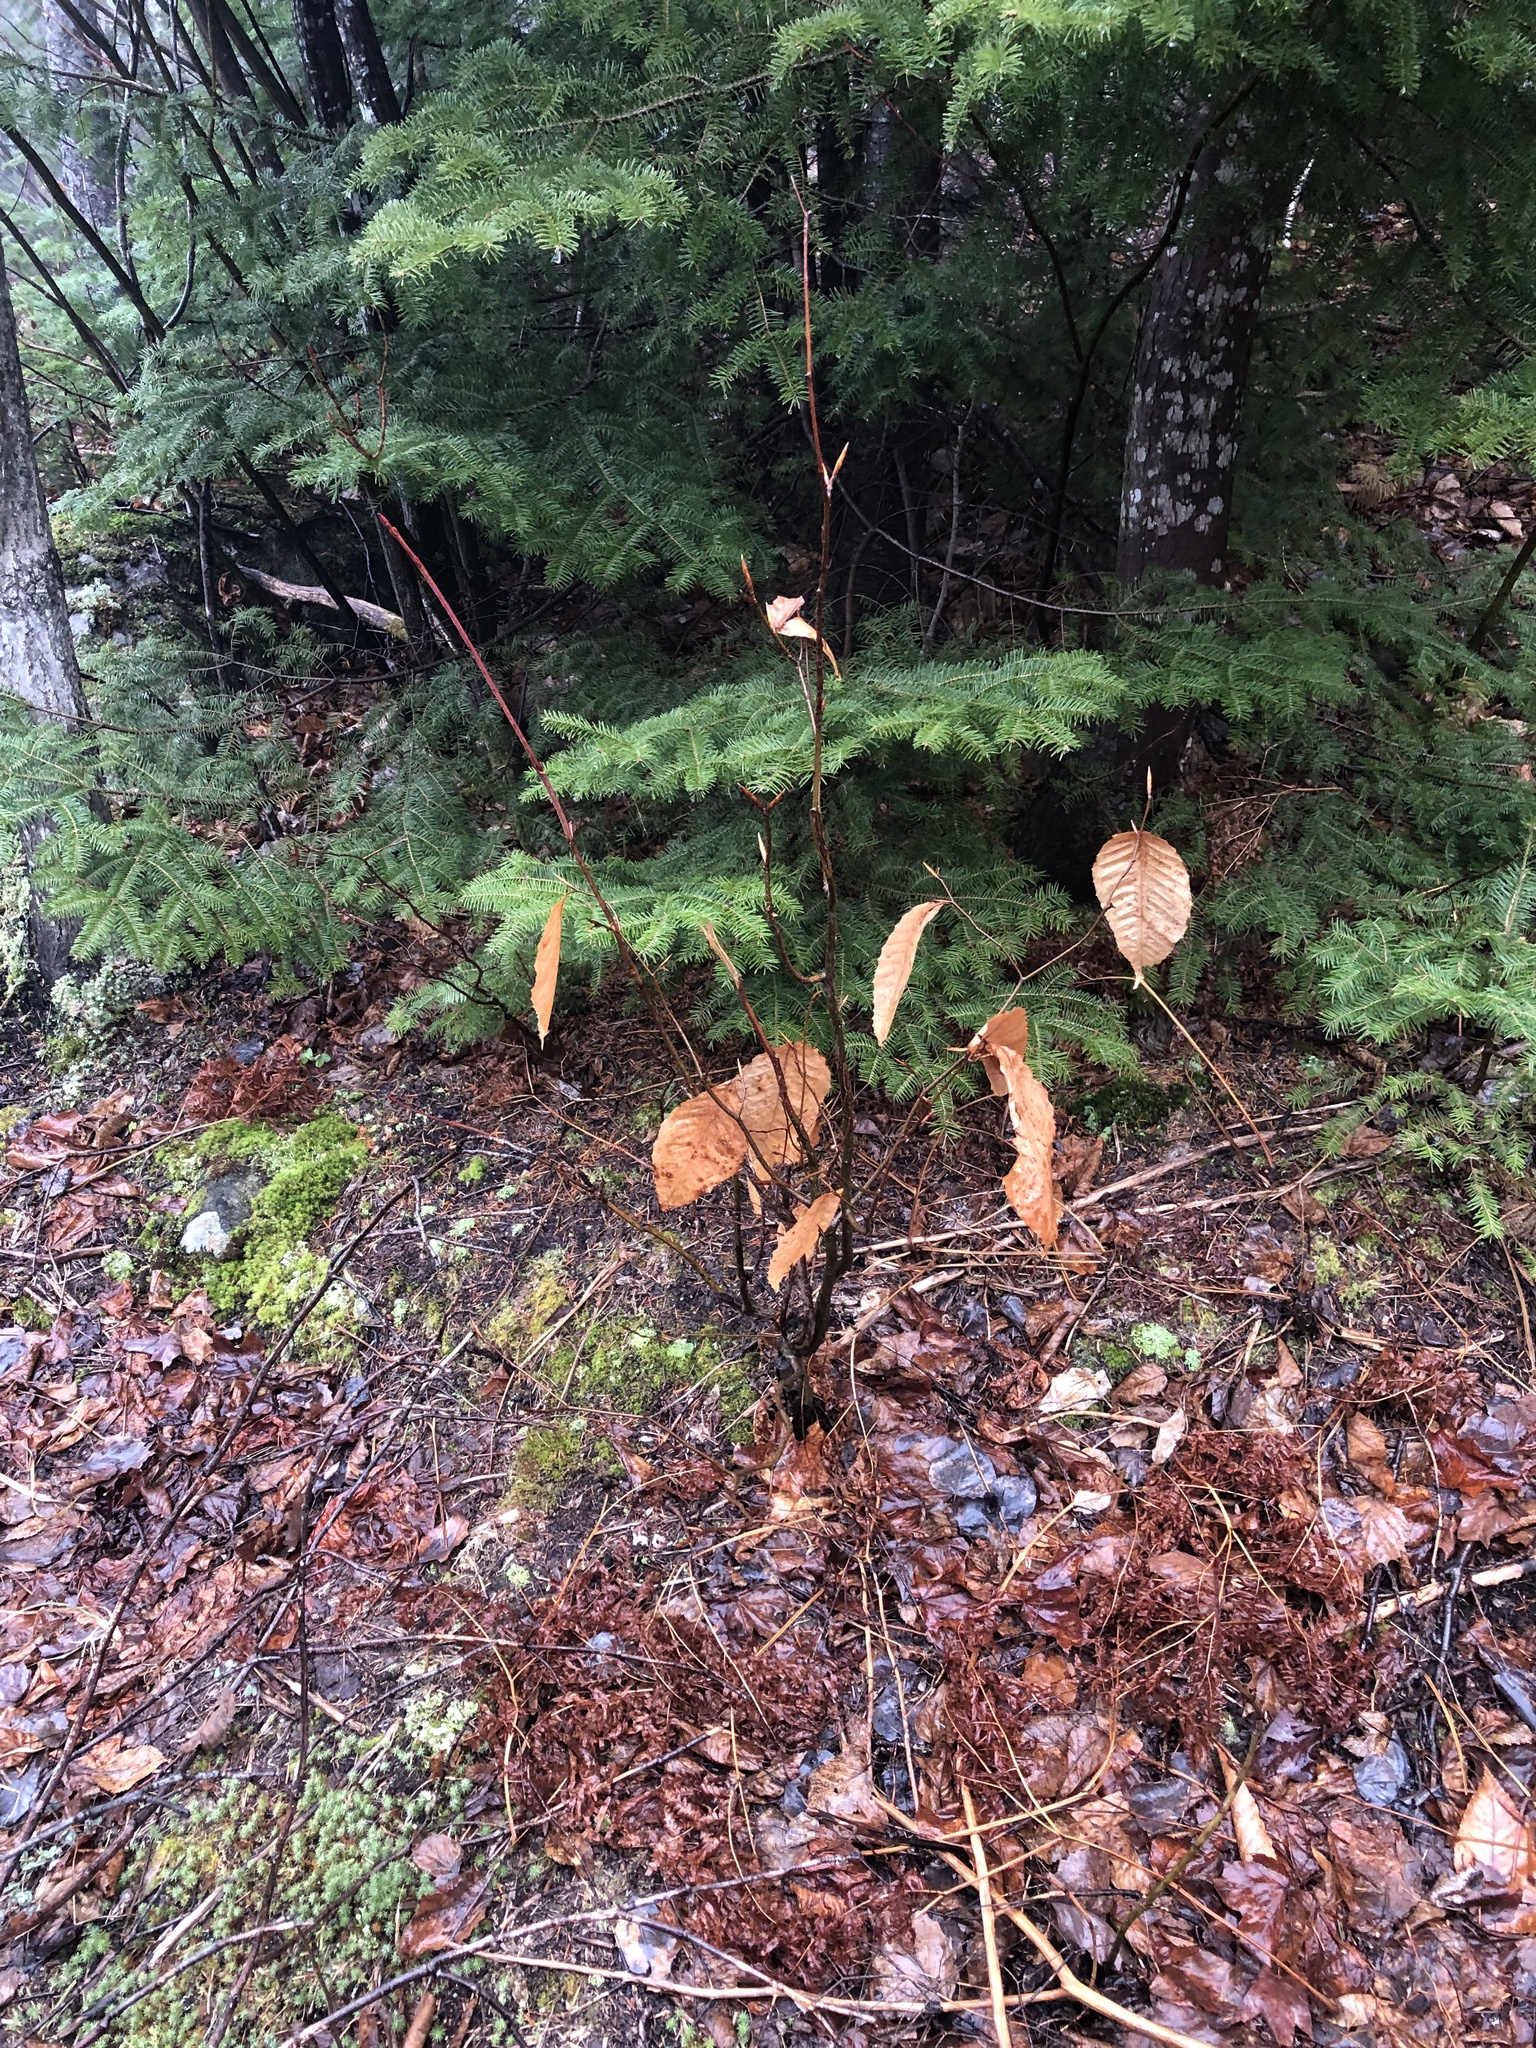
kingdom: Plantae
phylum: Tracheophyta
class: Magnoliopsida
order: Fagales
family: Fagaceae
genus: Fagus
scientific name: Fagus grandifolia
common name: American beech
